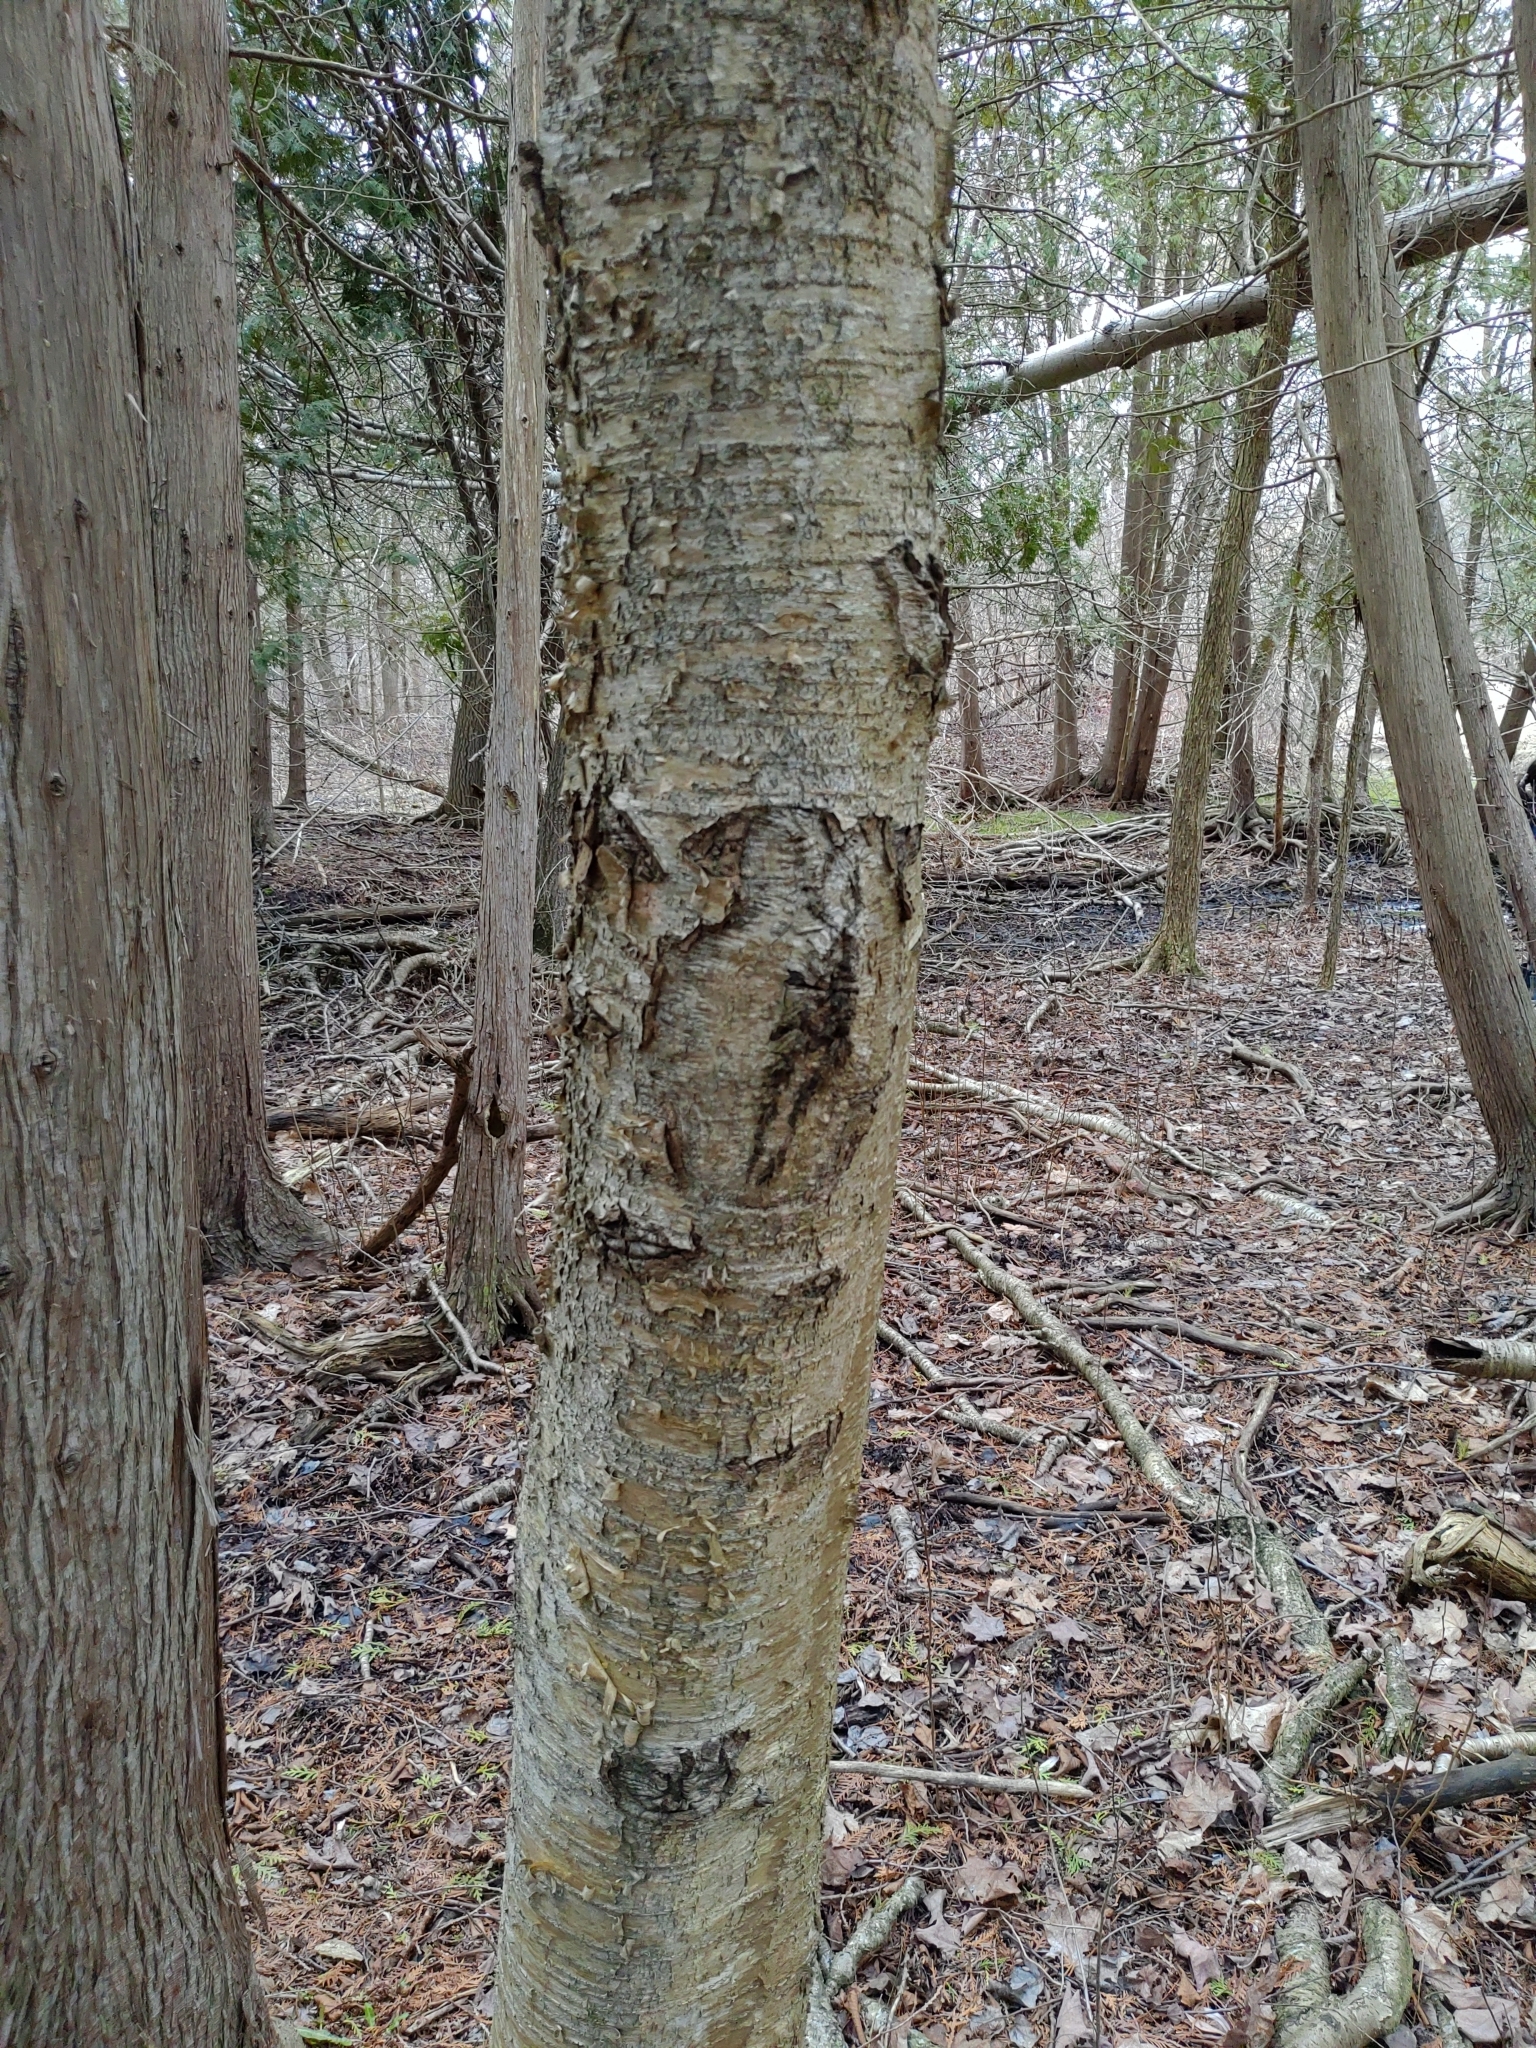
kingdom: Plantae
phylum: Tracheophyta
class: Magnoliopsida
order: Fagales
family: Betulaceae
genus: Betula
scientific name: Betula alleghaniensis
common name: Yellow birch
